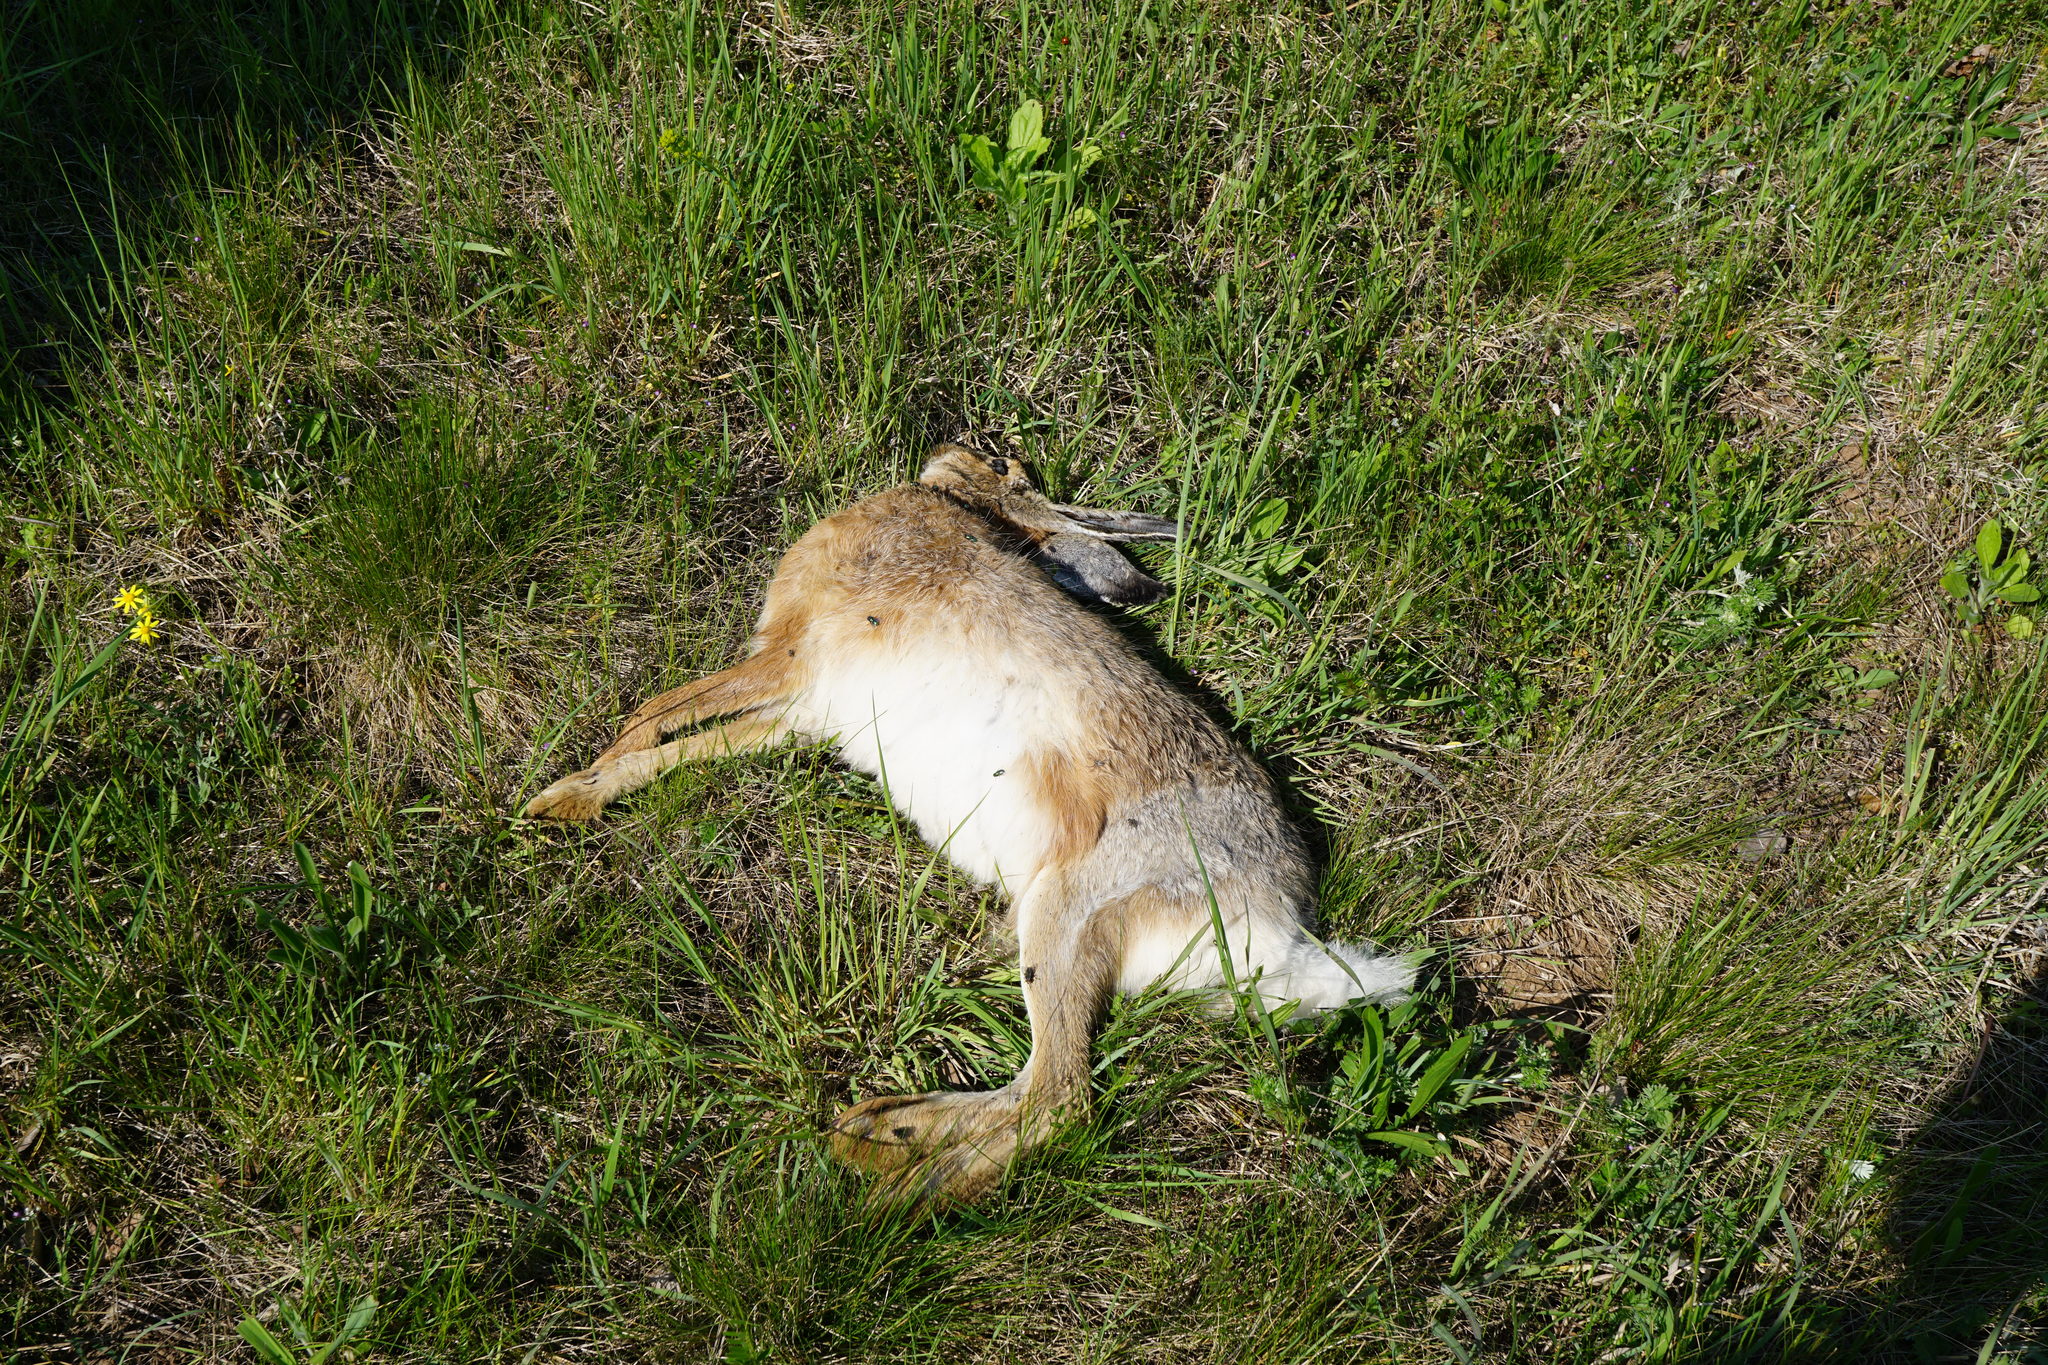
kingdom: Animalia
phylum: Chordata
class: Mammalia
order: Lagomorpha
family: Leporidae
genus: Lepus
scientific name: Lepus europaeus
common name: European hare
